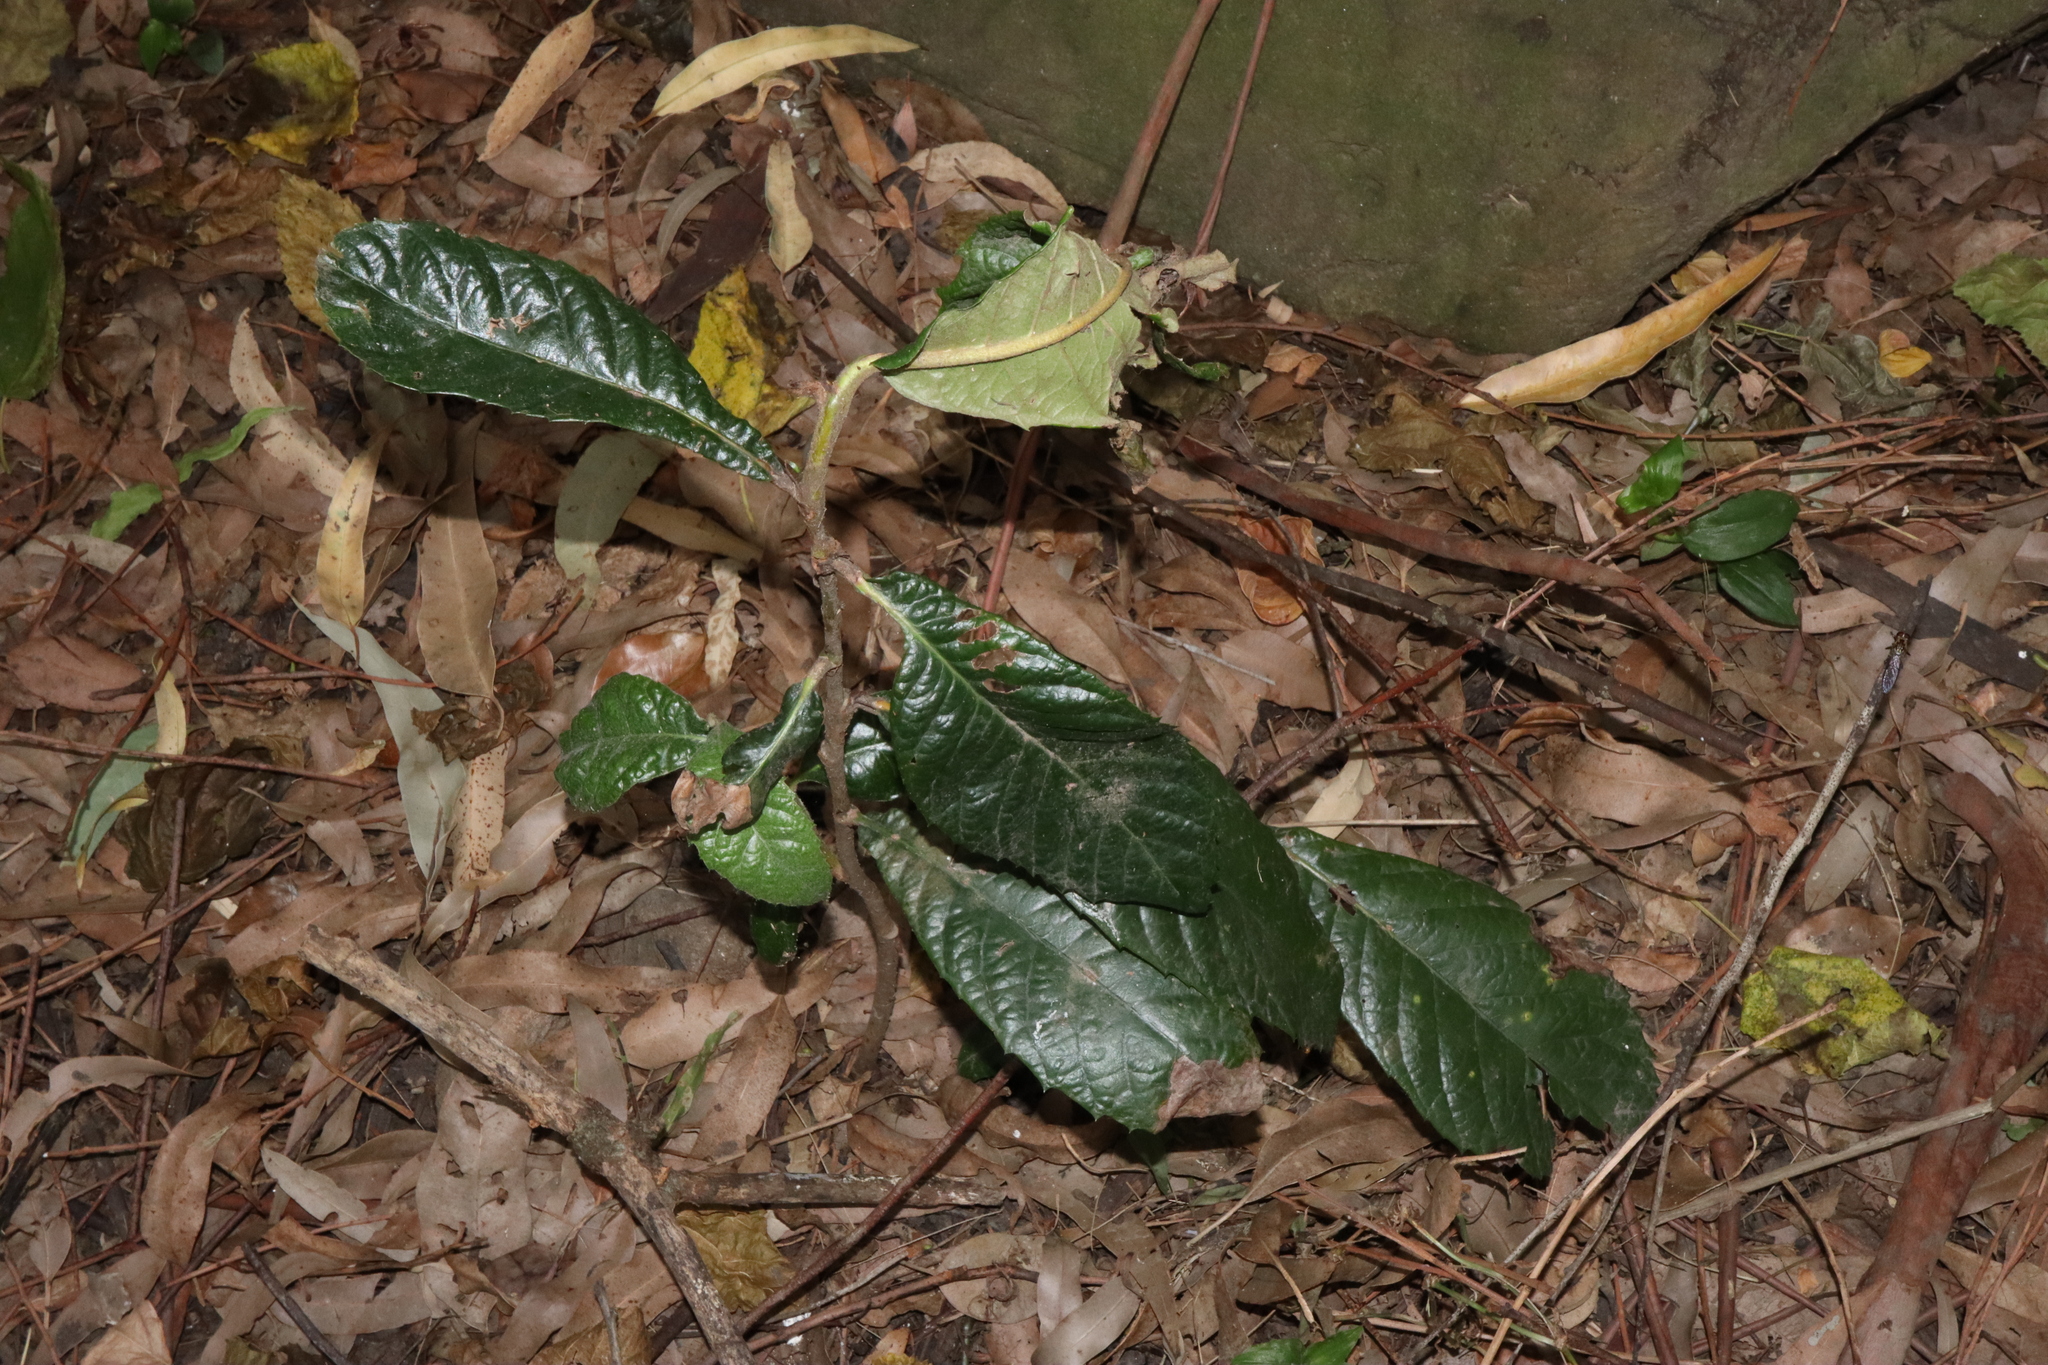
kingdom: Plantae
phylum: Tracheophyta
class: Magnoliopsida
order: Rosales
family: Rosaceae
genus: Rhaphiolepis
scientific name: Rhaphiolepis bibas
